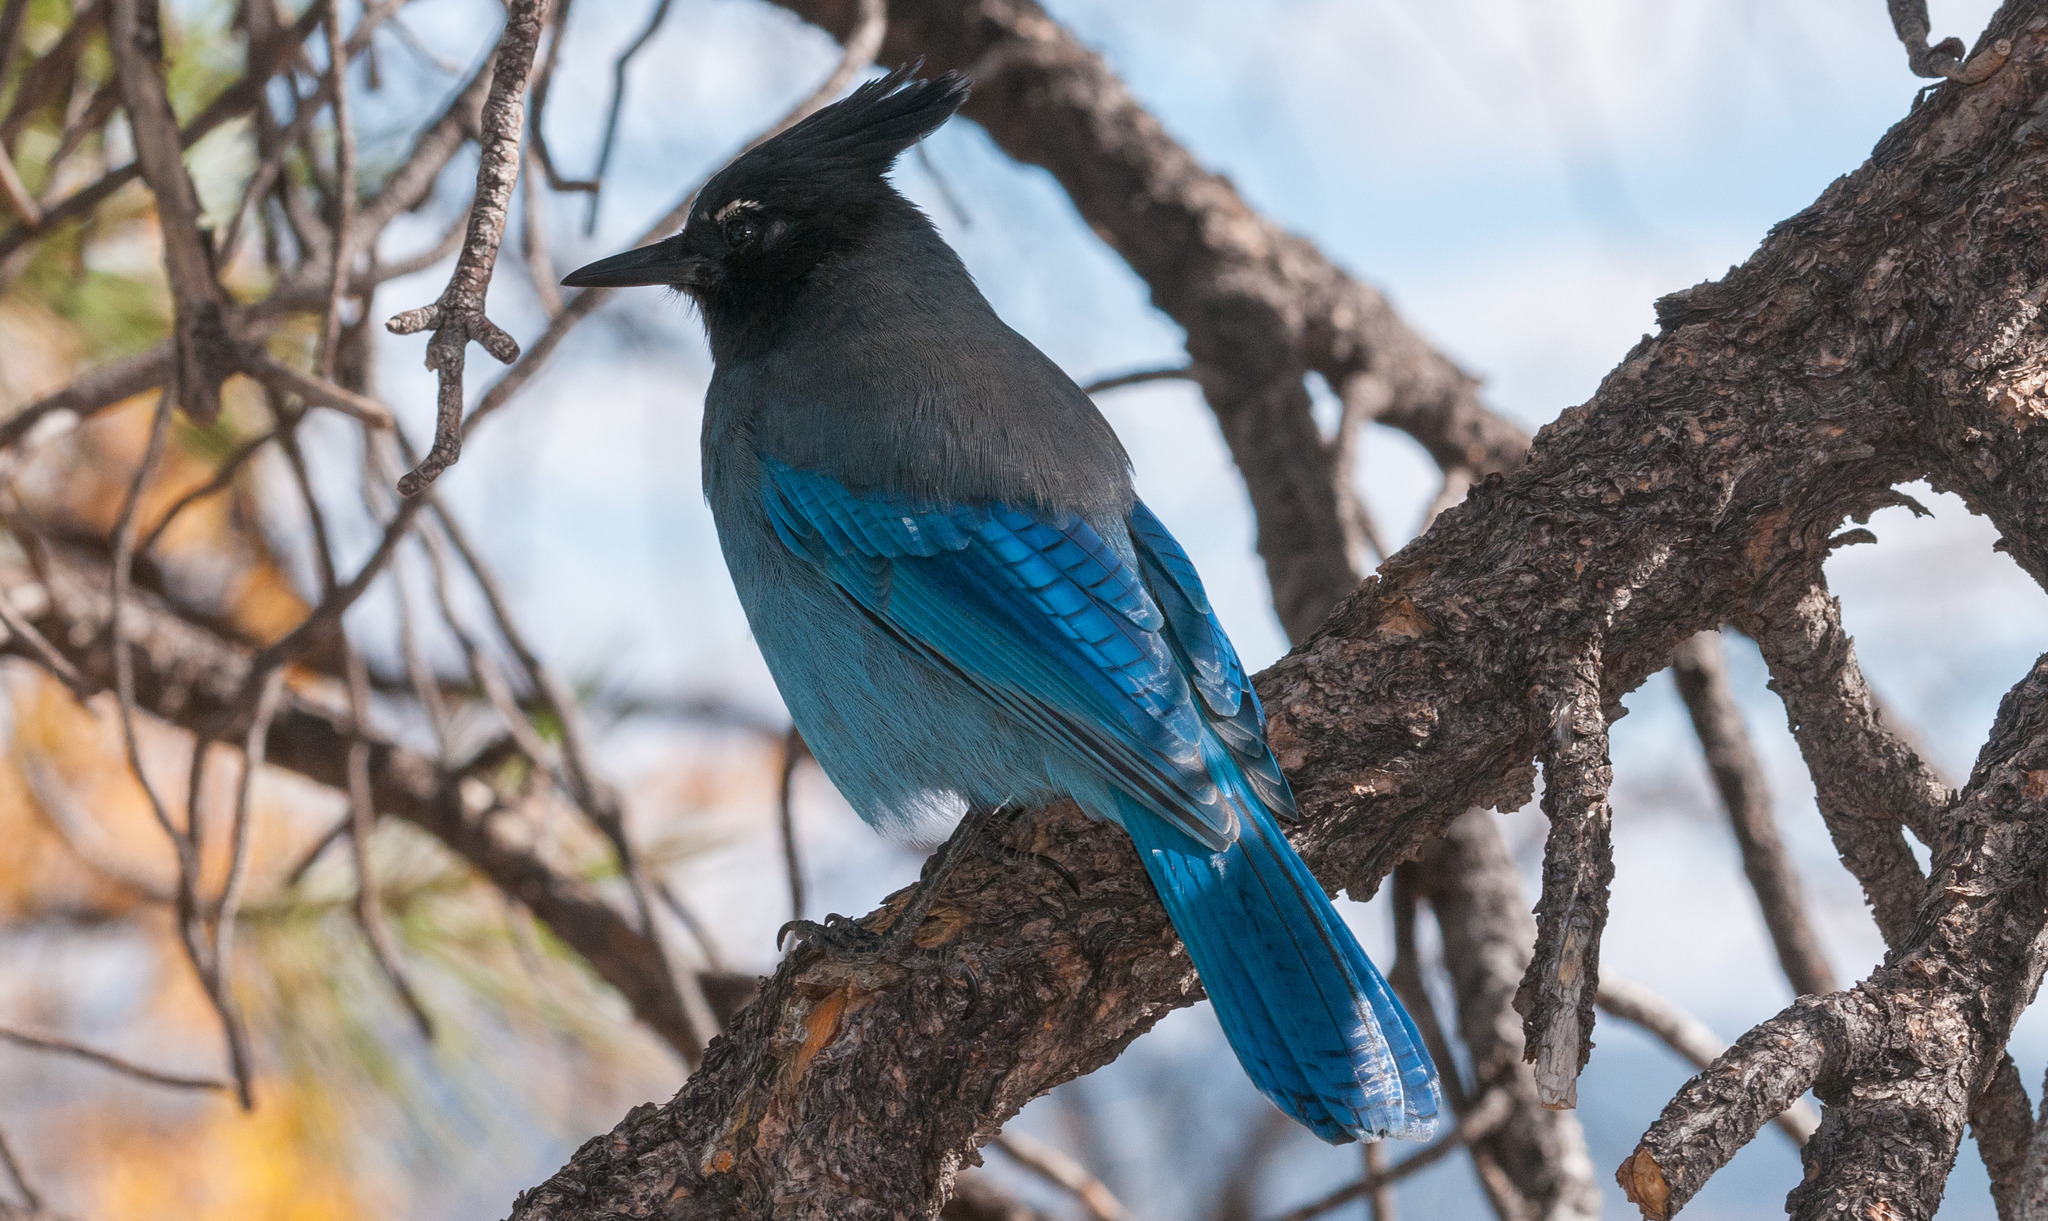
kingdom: Animalia
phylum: Chordata
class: Aves
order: Passeriformes
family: Corvidae
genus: Cyanocitta
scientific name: Cyanocitta stelleri
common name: Steller's jay
